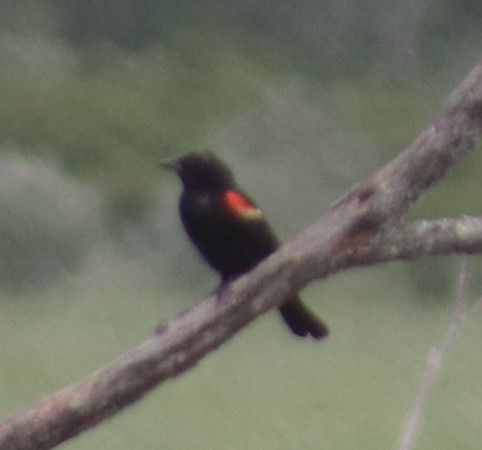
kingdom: Animalia
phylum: Chordata
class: Aves
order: Passeriformes
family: Icteridae
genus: Agelaius
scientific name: Agelaius phoeniceus
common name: Red-winged blackbird
